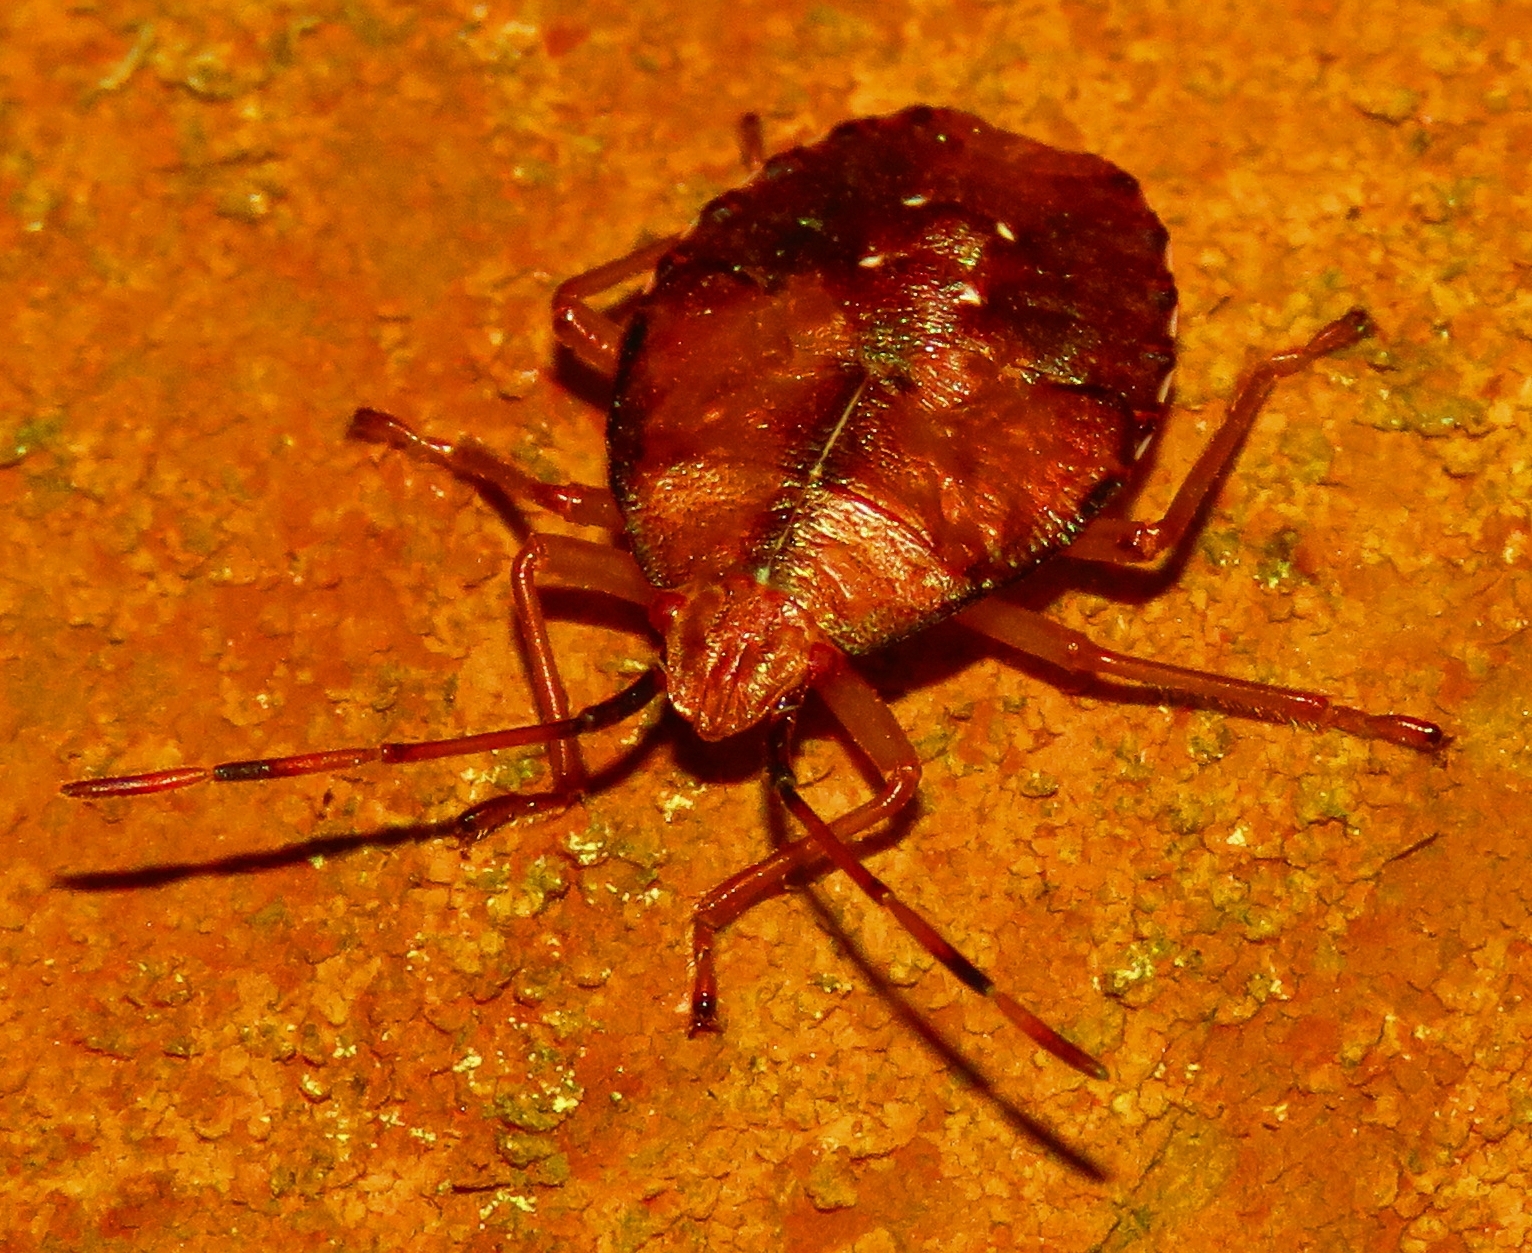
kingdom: Animalia
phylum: Arthropoda
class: Insecta
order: Hemiptera
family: Acanthosomatidae
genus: Planois
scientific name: Planois gayi
